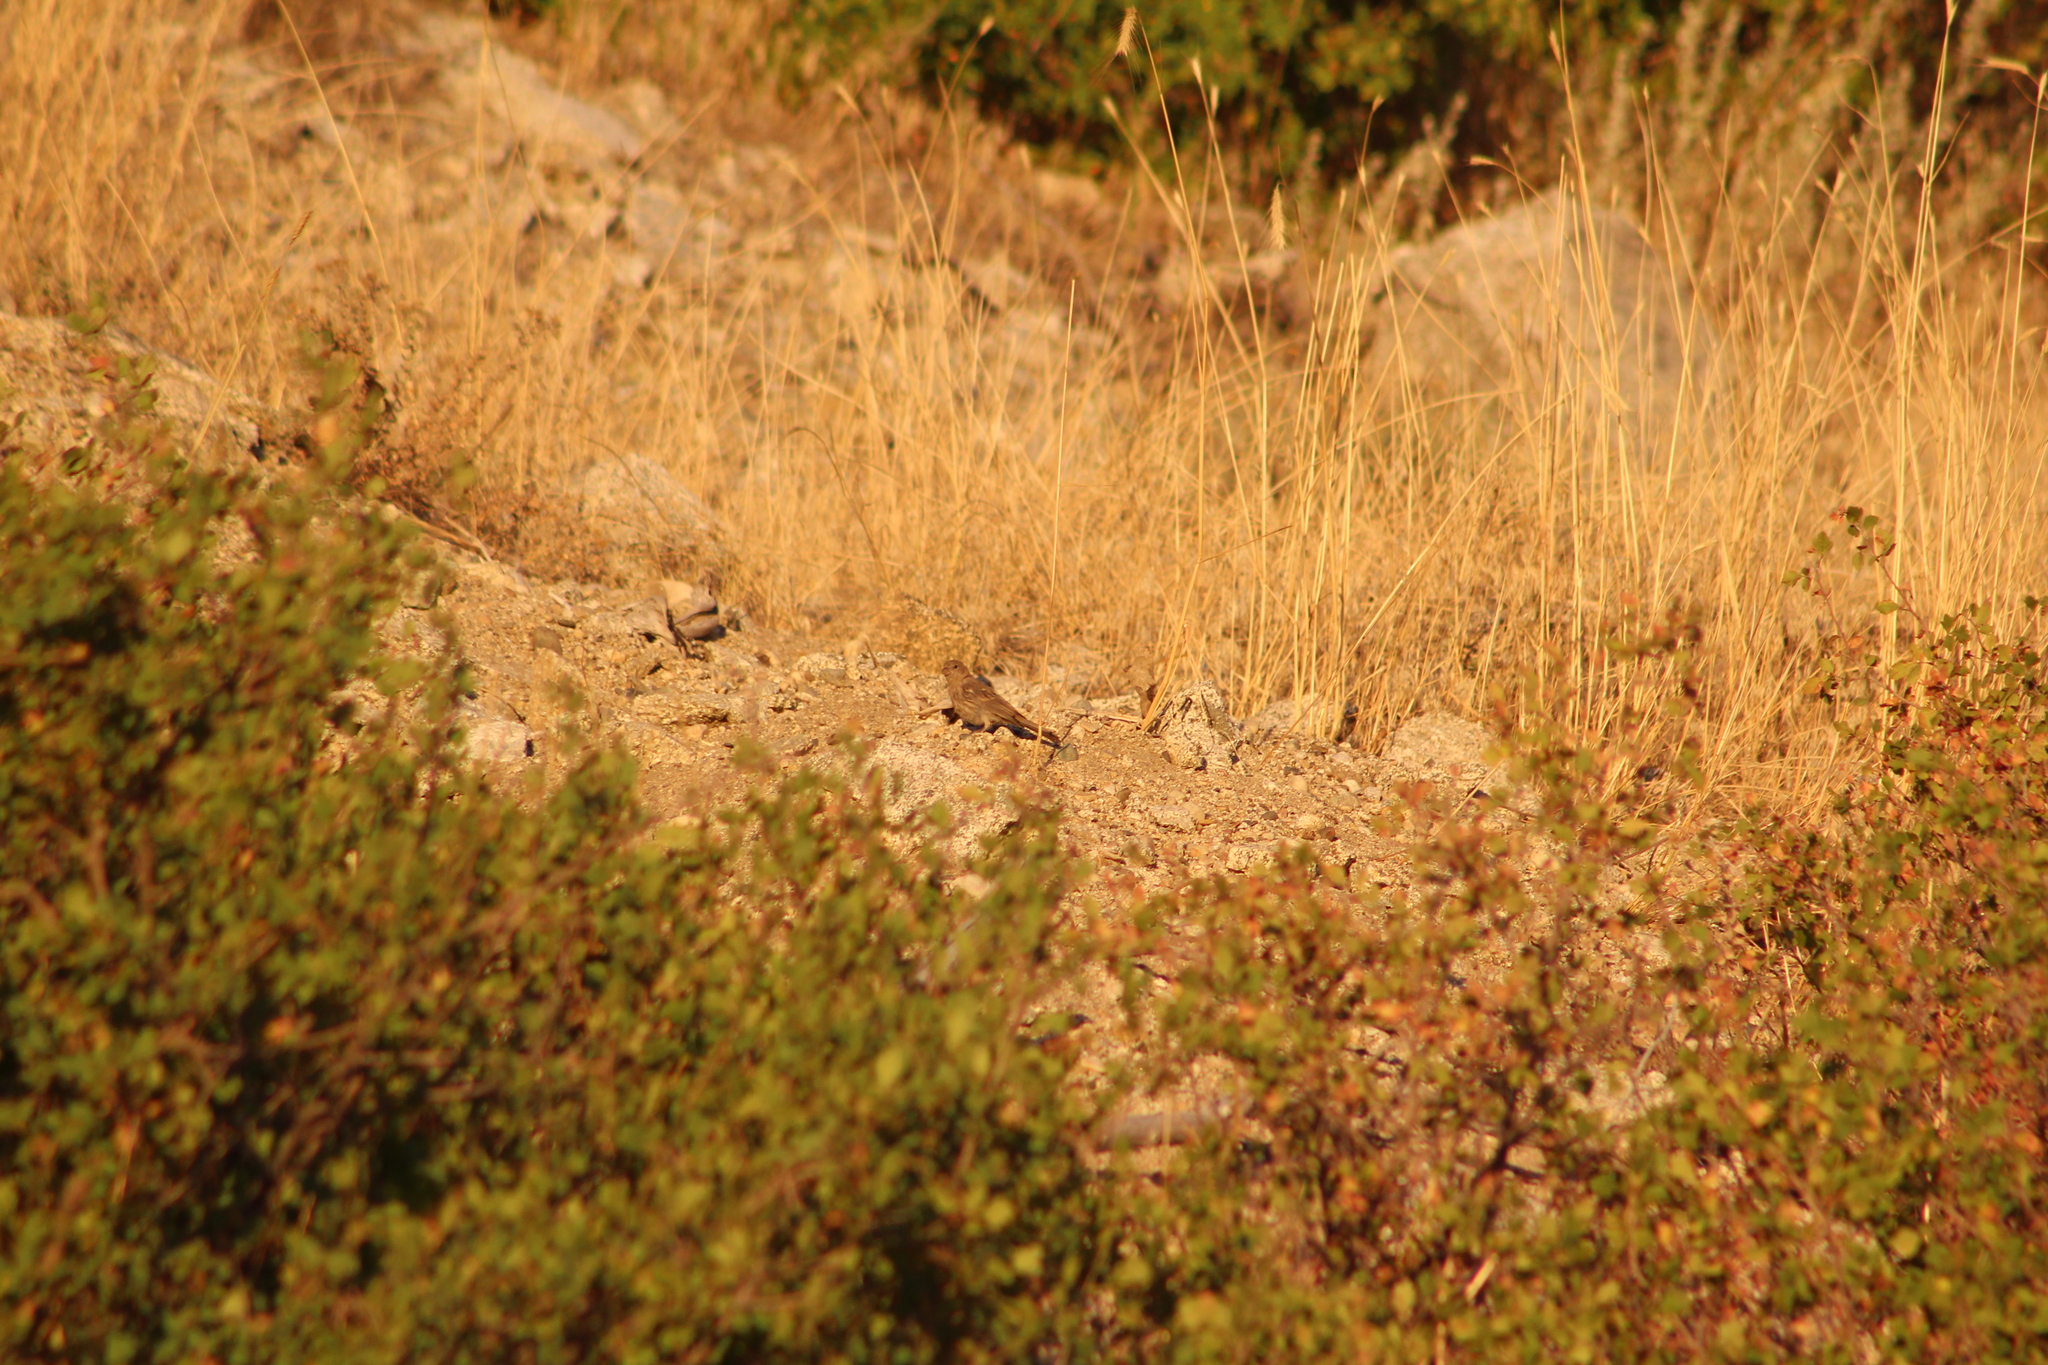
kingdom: Animalia
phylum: Chordata
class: Aves
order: Passeriformes
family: Fringillidae
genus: Haemorhous
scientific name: Haemorhous mexicanus
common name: House finch
